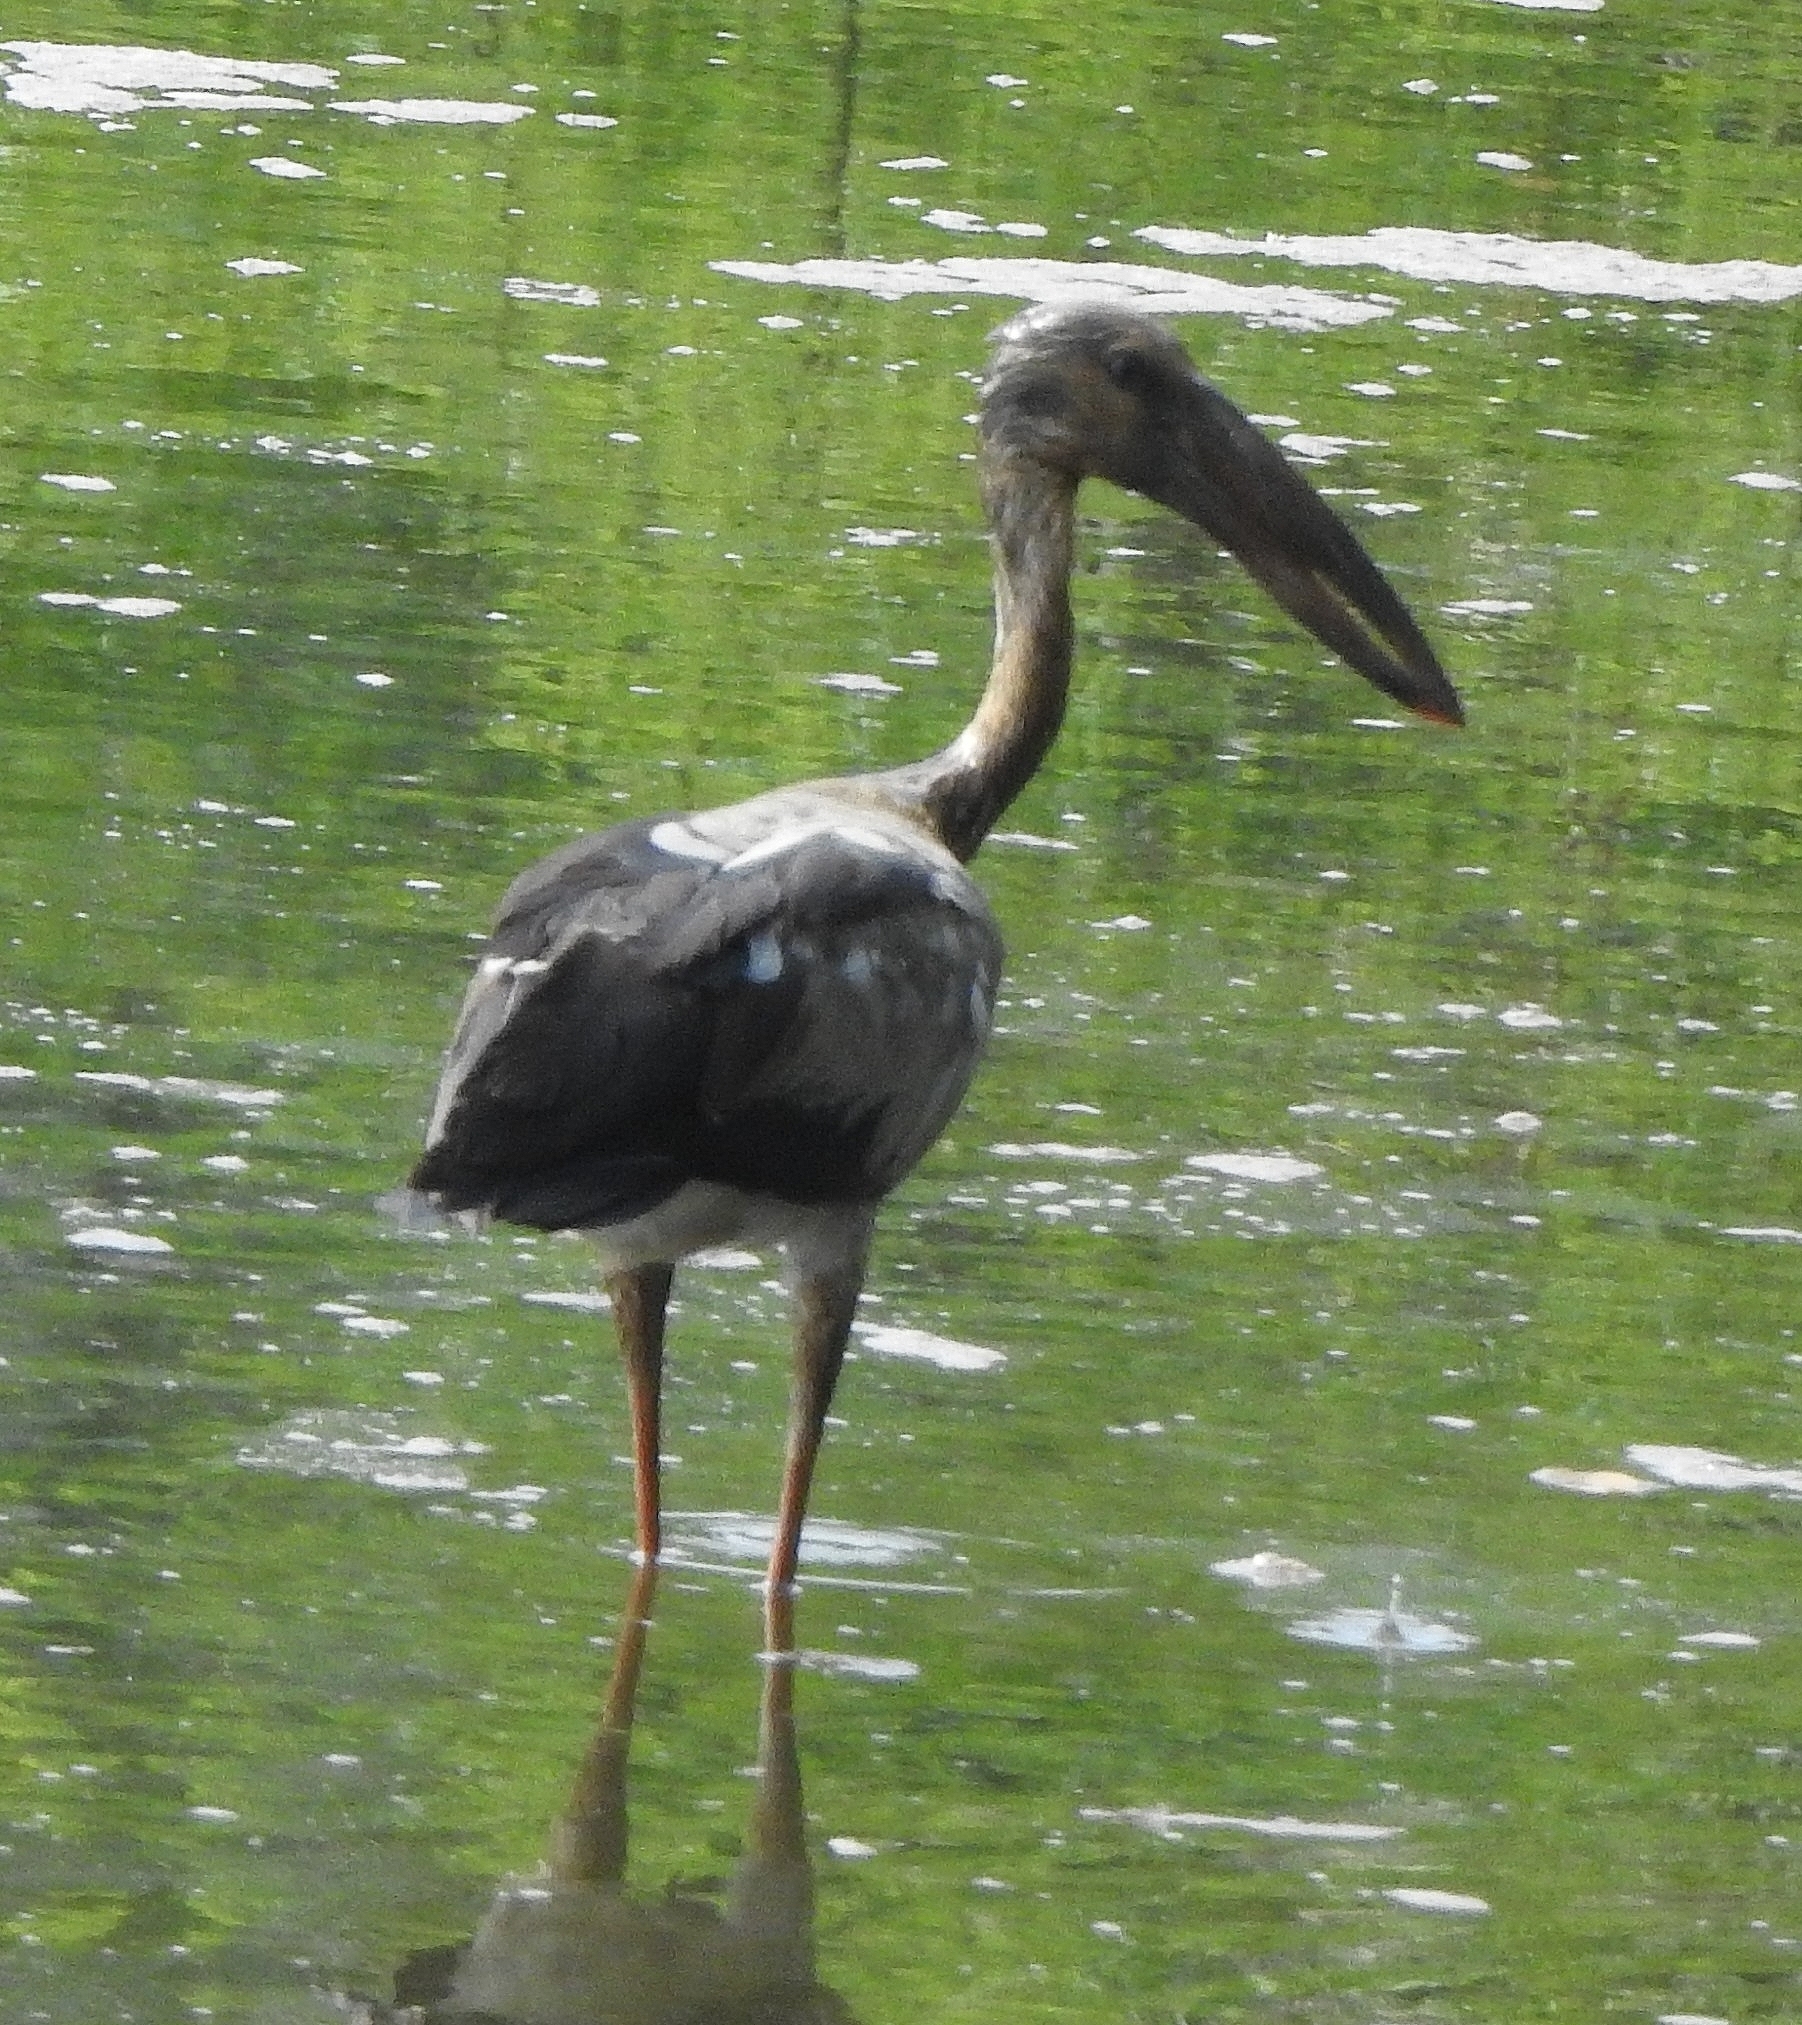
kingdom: Animalia
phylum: Chordata
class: Aves
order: Ciconiiformes
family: Ciconiidae
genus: Anastomus
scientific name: Anastomus oscitans
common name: Asian openbill
